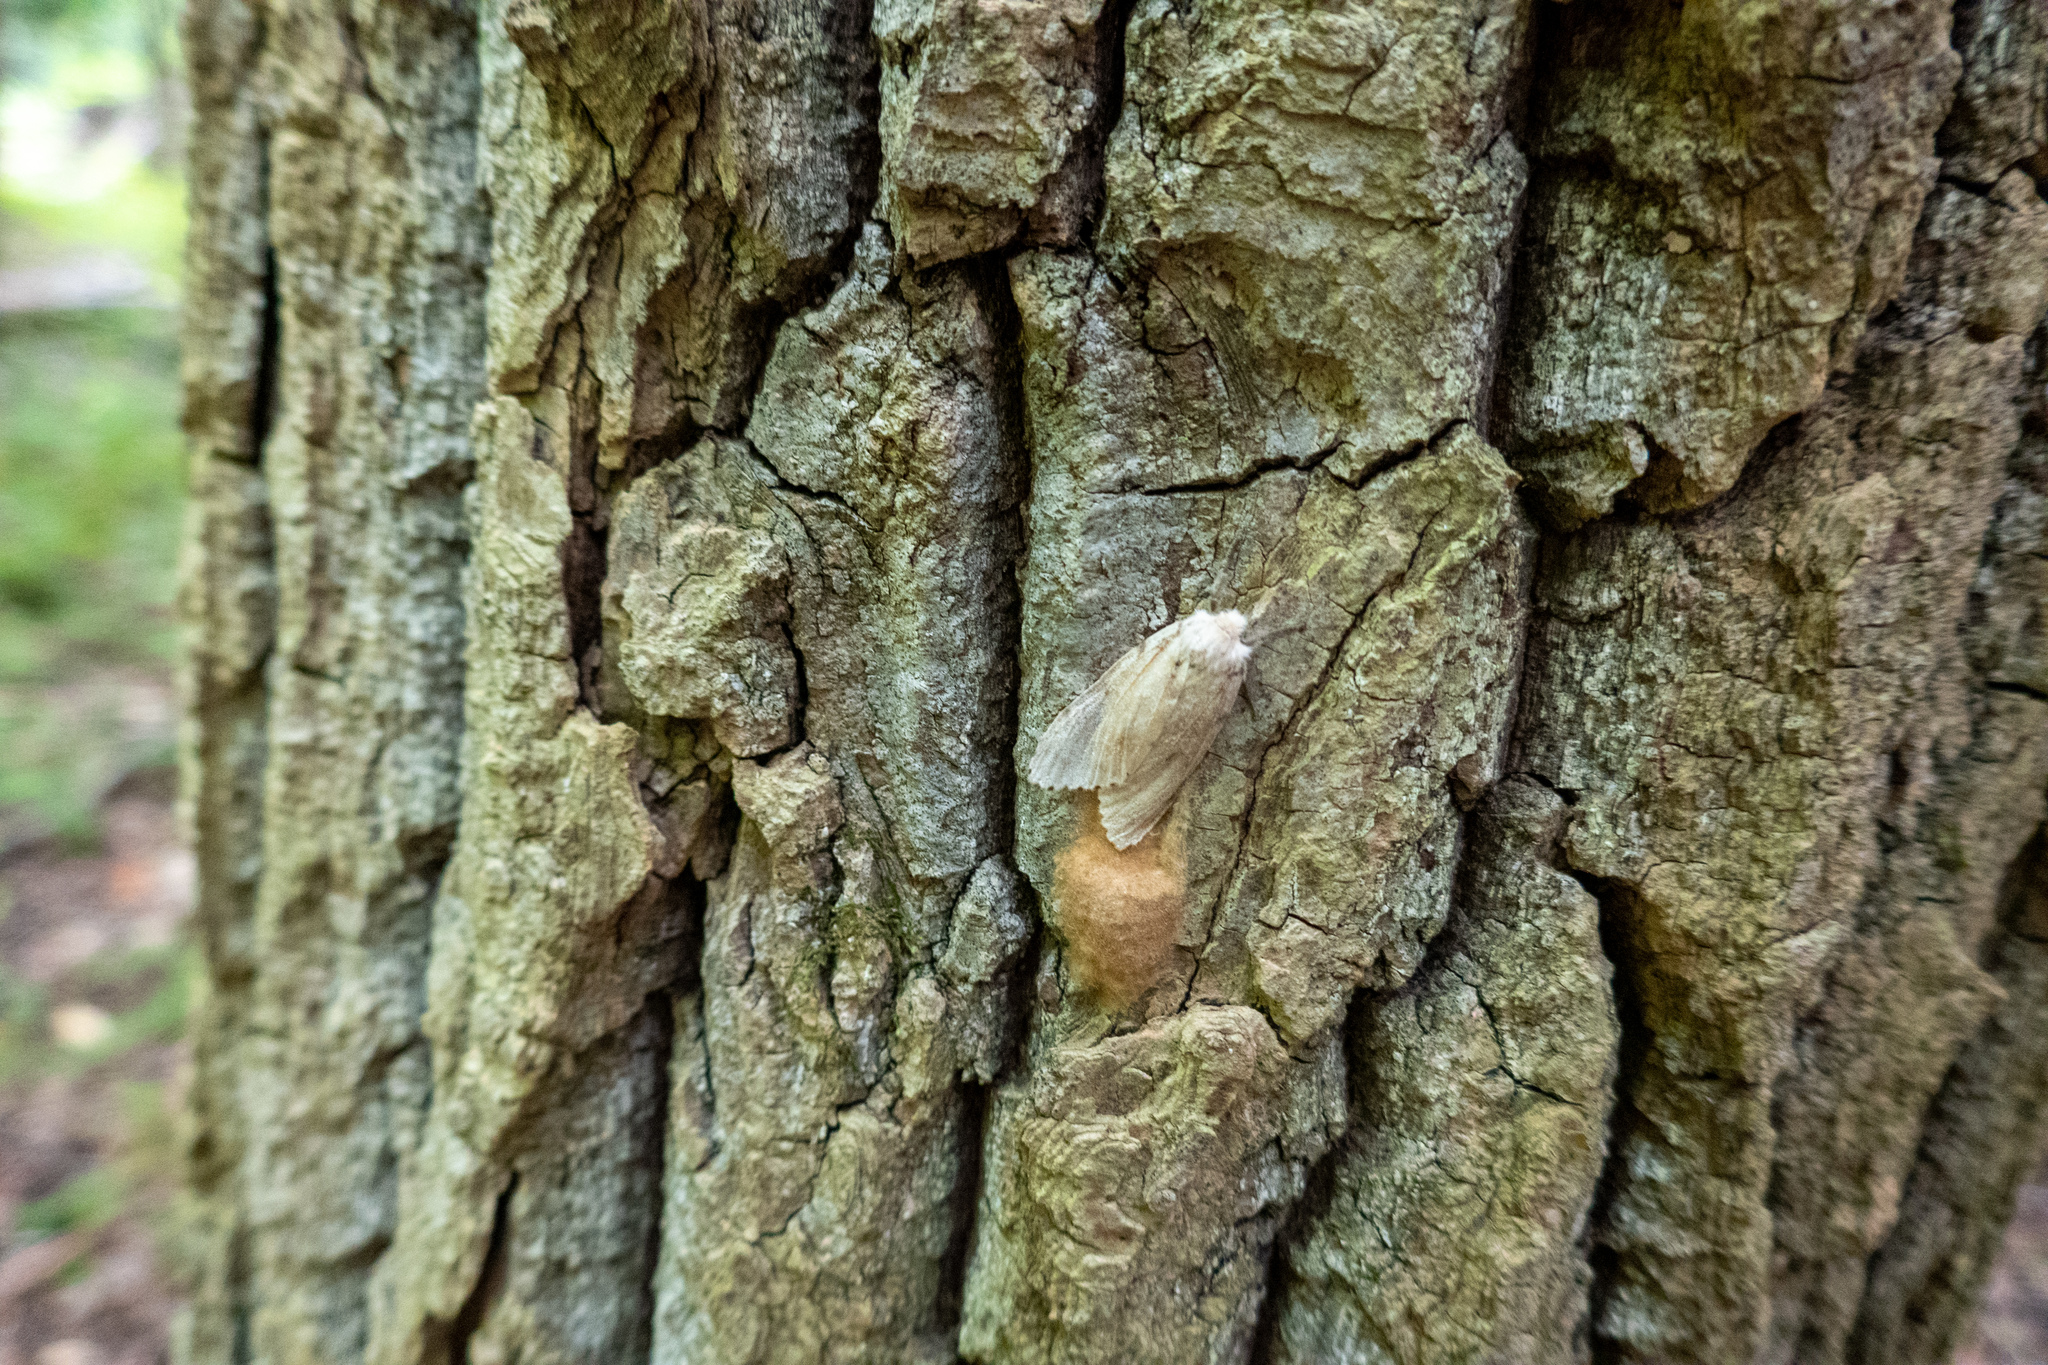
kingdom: Animalia
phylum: Arthropoda
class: Insecta
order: Lepidoptera
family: Erebidae
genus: Lymantria
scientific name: Lymantria dispar
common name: Gypsy moth
